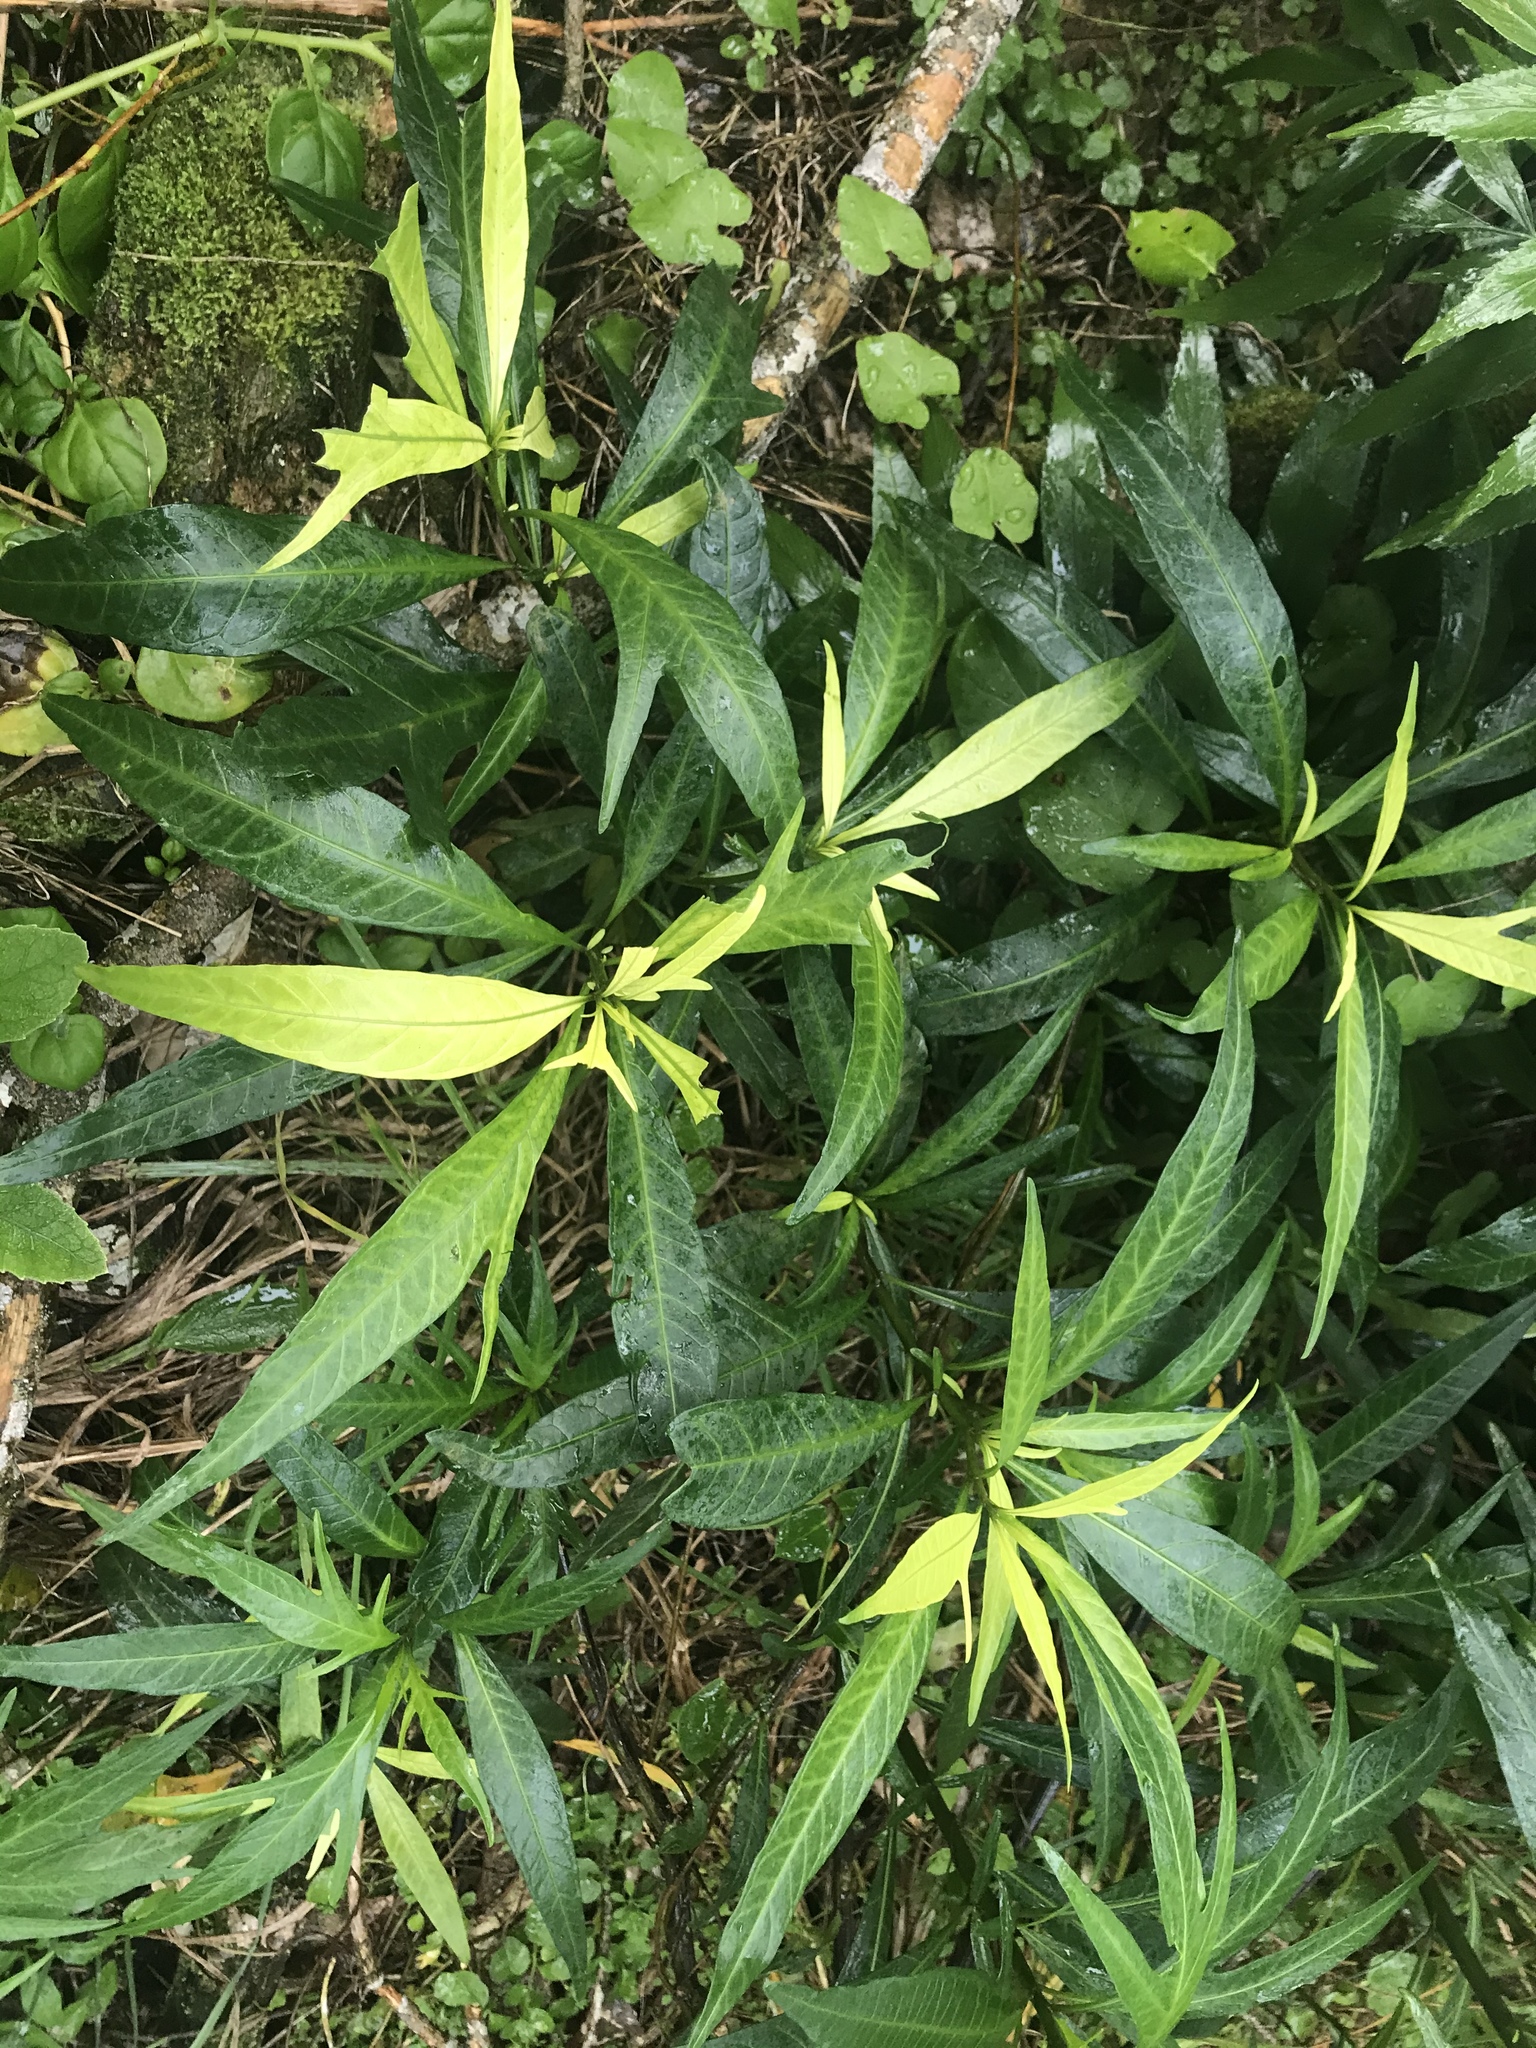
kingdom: Plantae
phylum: Tracheophyta
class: Magnoliopsida
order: Solanales
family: Solanaceae
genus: Solanum
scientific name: Solanum
